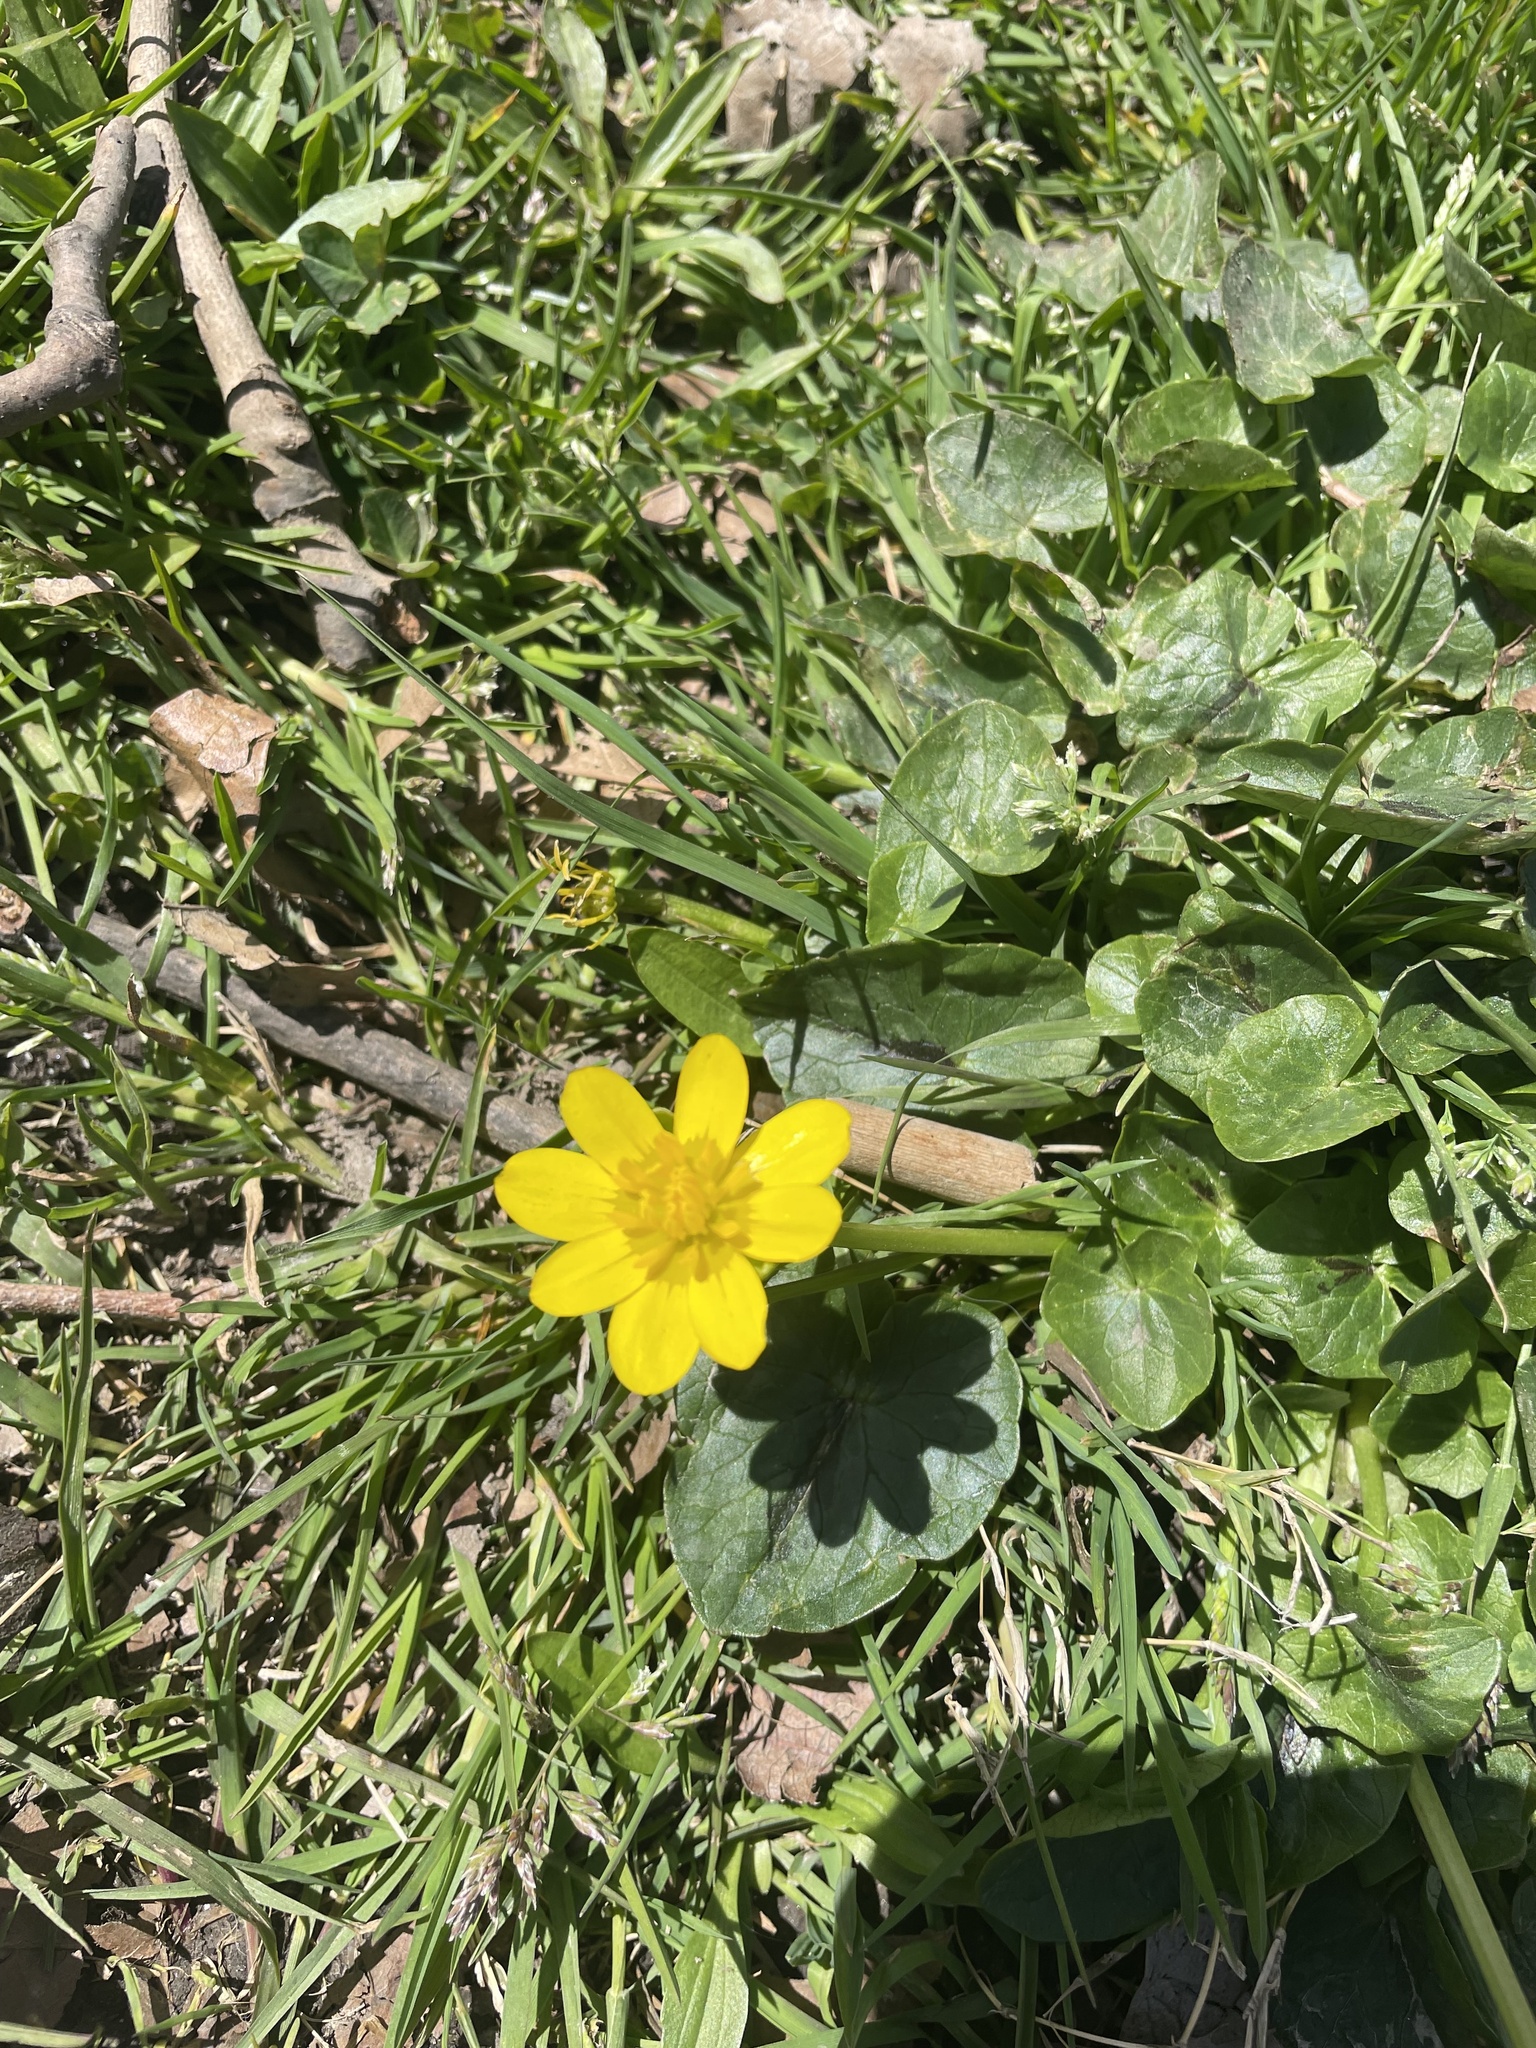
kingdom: Plantae
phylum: Tracheophyta
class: Magnoliopsida
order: Ranunculales
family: Ranunculaceae
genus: Ficaria
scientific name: Ficaria verna
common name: Lesser celandine
